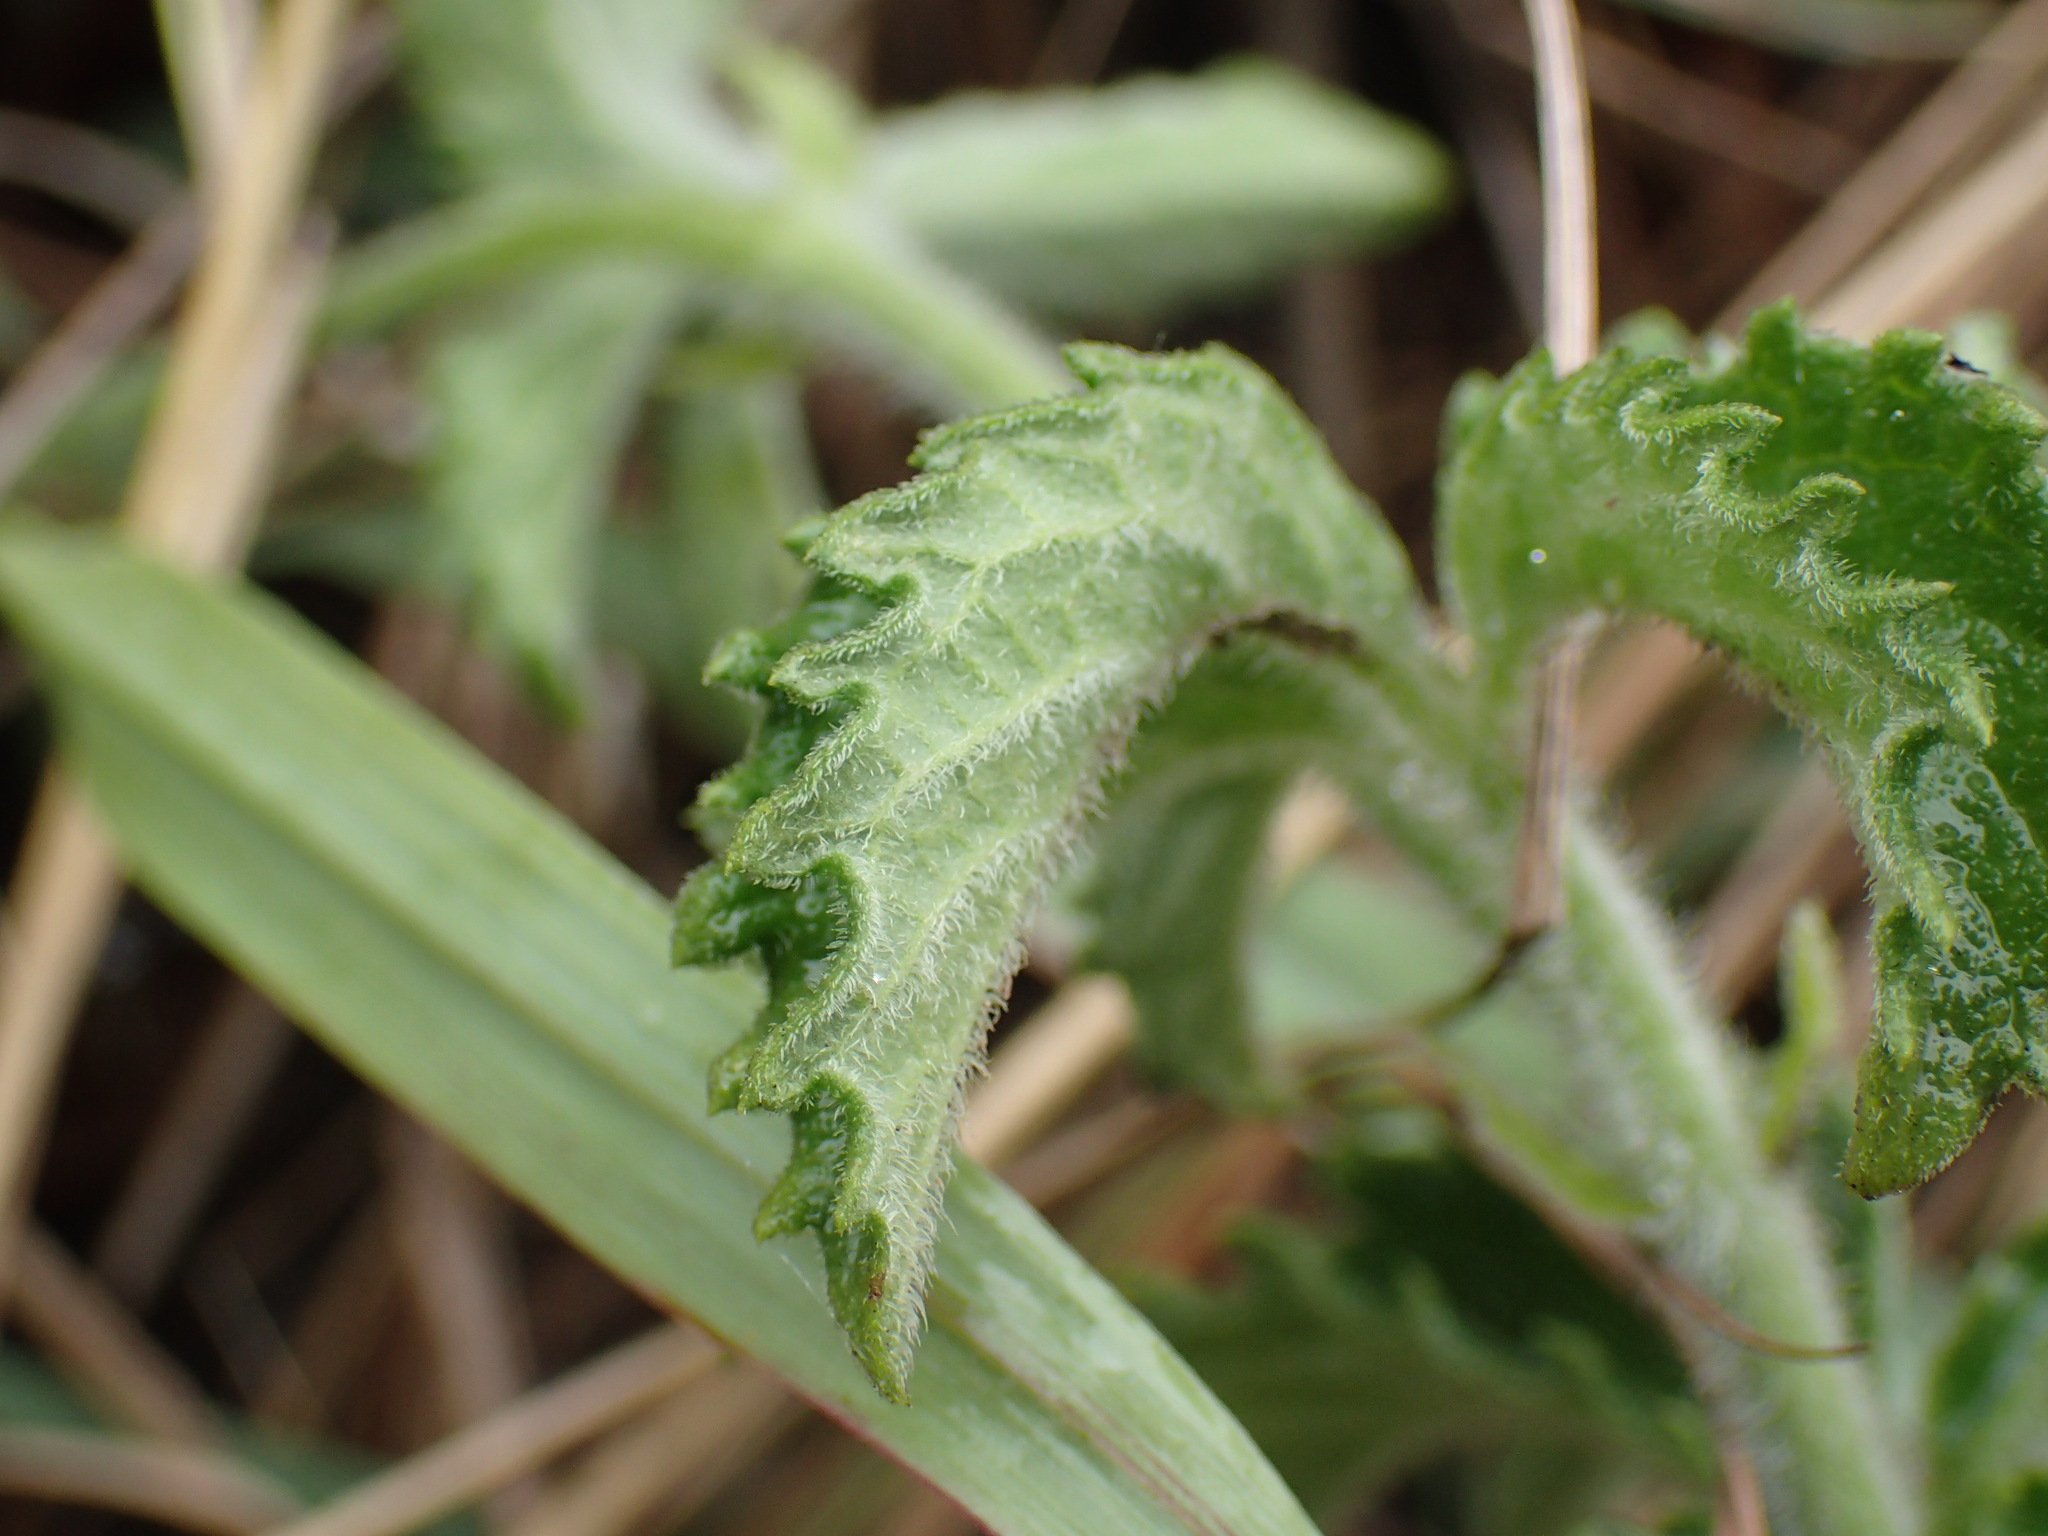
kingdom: Plantae
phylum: Tracheophyta
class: Magnoliopsida
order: Vitales
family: Vitaceae
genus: Cyphostemma
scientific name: Cyphostemma cirrhosum
